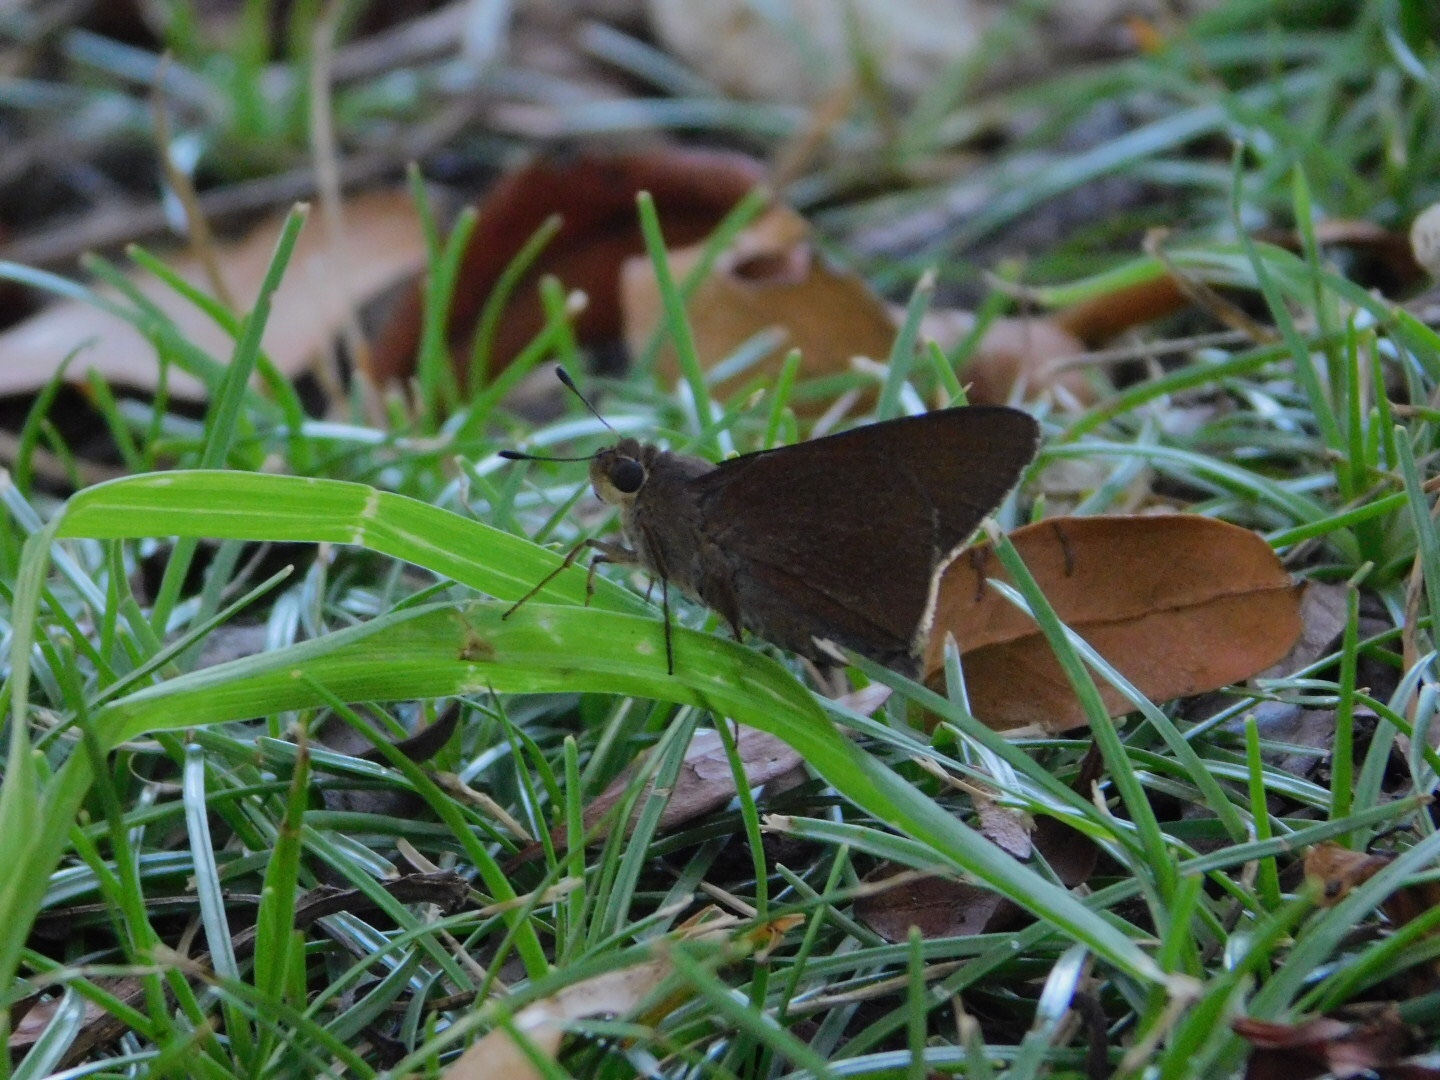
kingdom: Animalia
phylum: Arthropoda
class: Insecta
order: Lepidoptera
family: Hesperiidae
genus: Asbolis
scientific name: Asbolis capucinus
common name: Monk skipper
